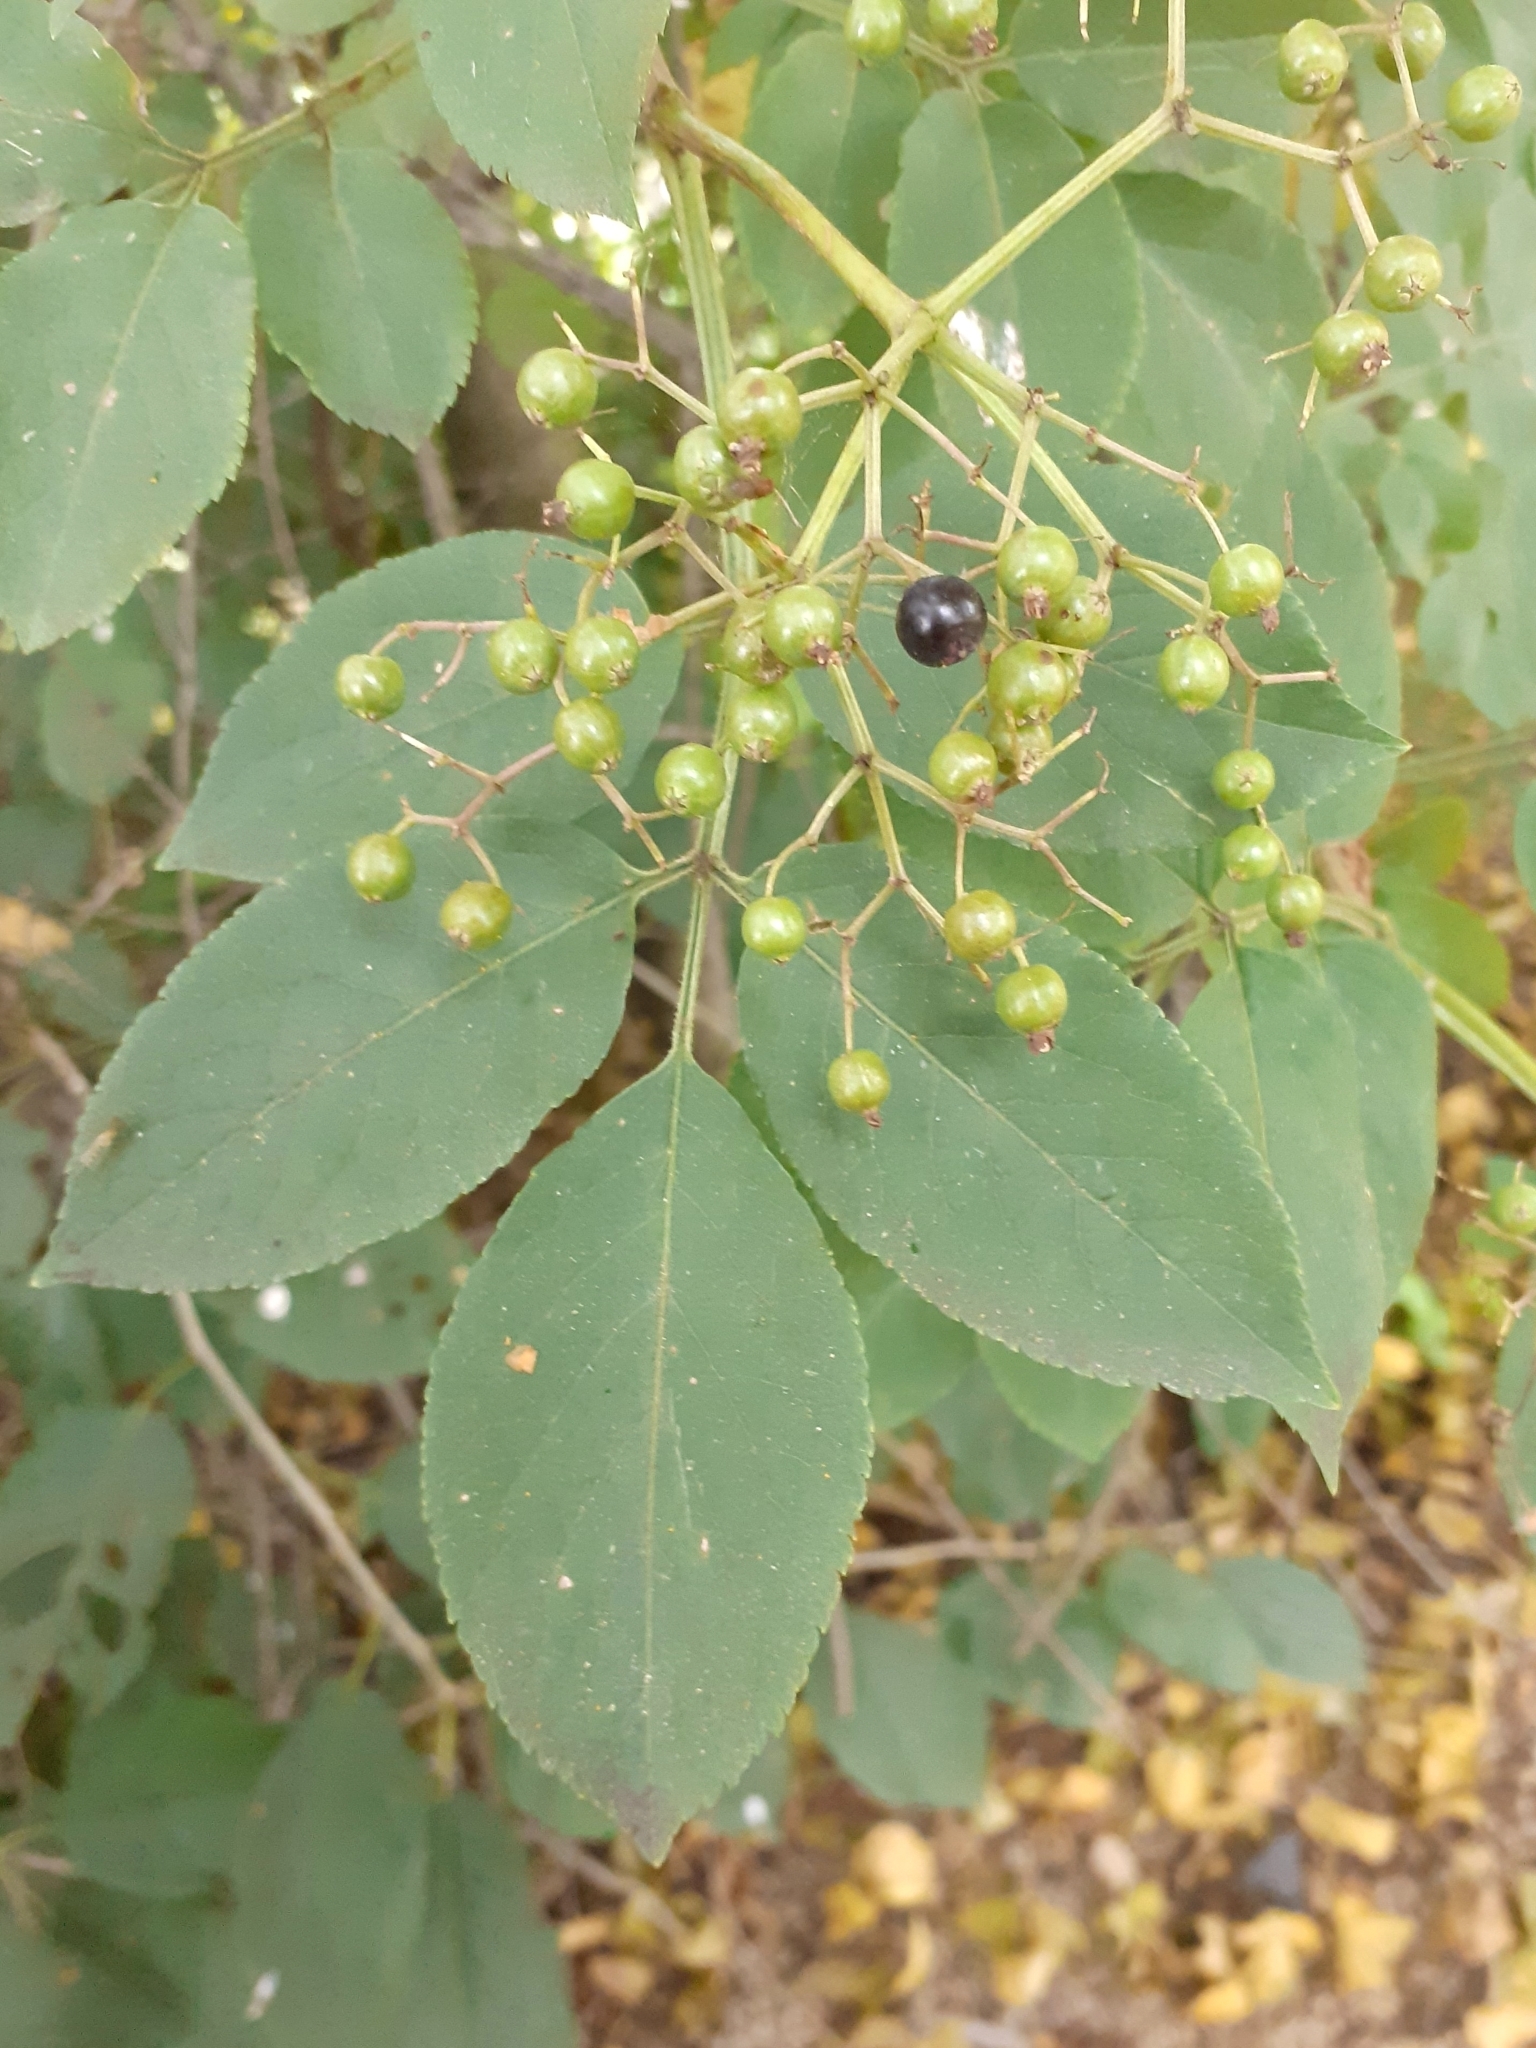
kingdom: Plantae
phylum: Tracheophyta
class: Magnoliopsida
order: Dipsacales
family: Viburnaceae
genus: Sambucus
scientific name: Sambucus nigra
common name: Elder
